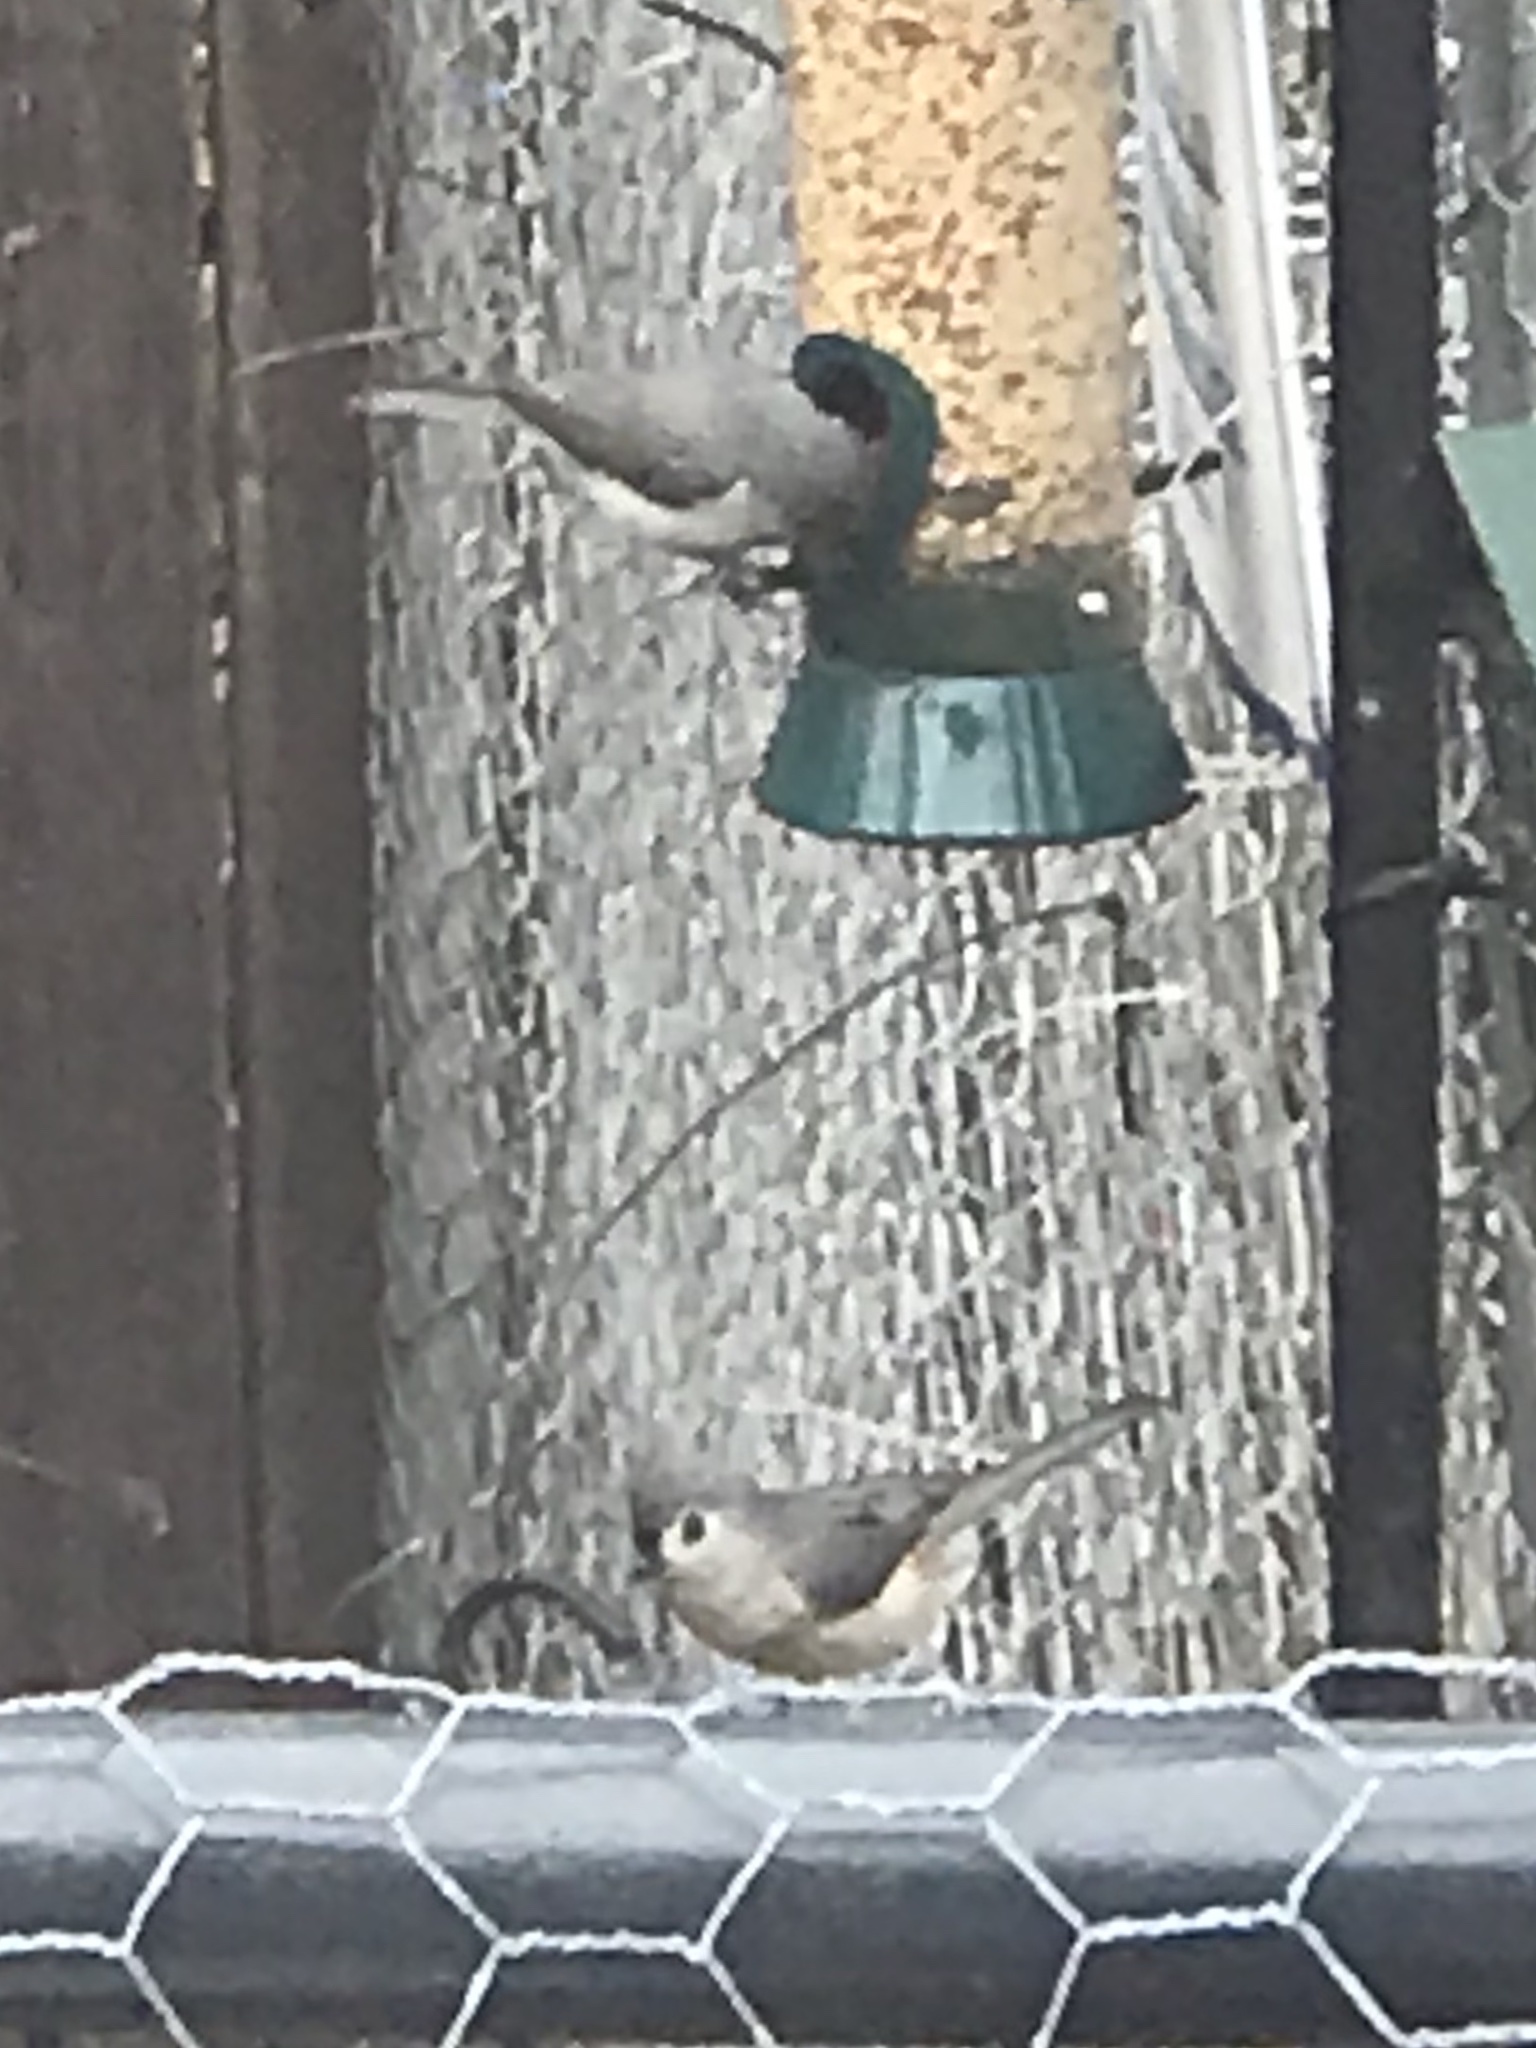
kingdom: Animalia
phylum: Chordata
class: Aves
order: Passeriformes
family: Paridae
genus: Baeolophus
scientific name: Baeolophus bicolor
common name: Tufted titmouse
